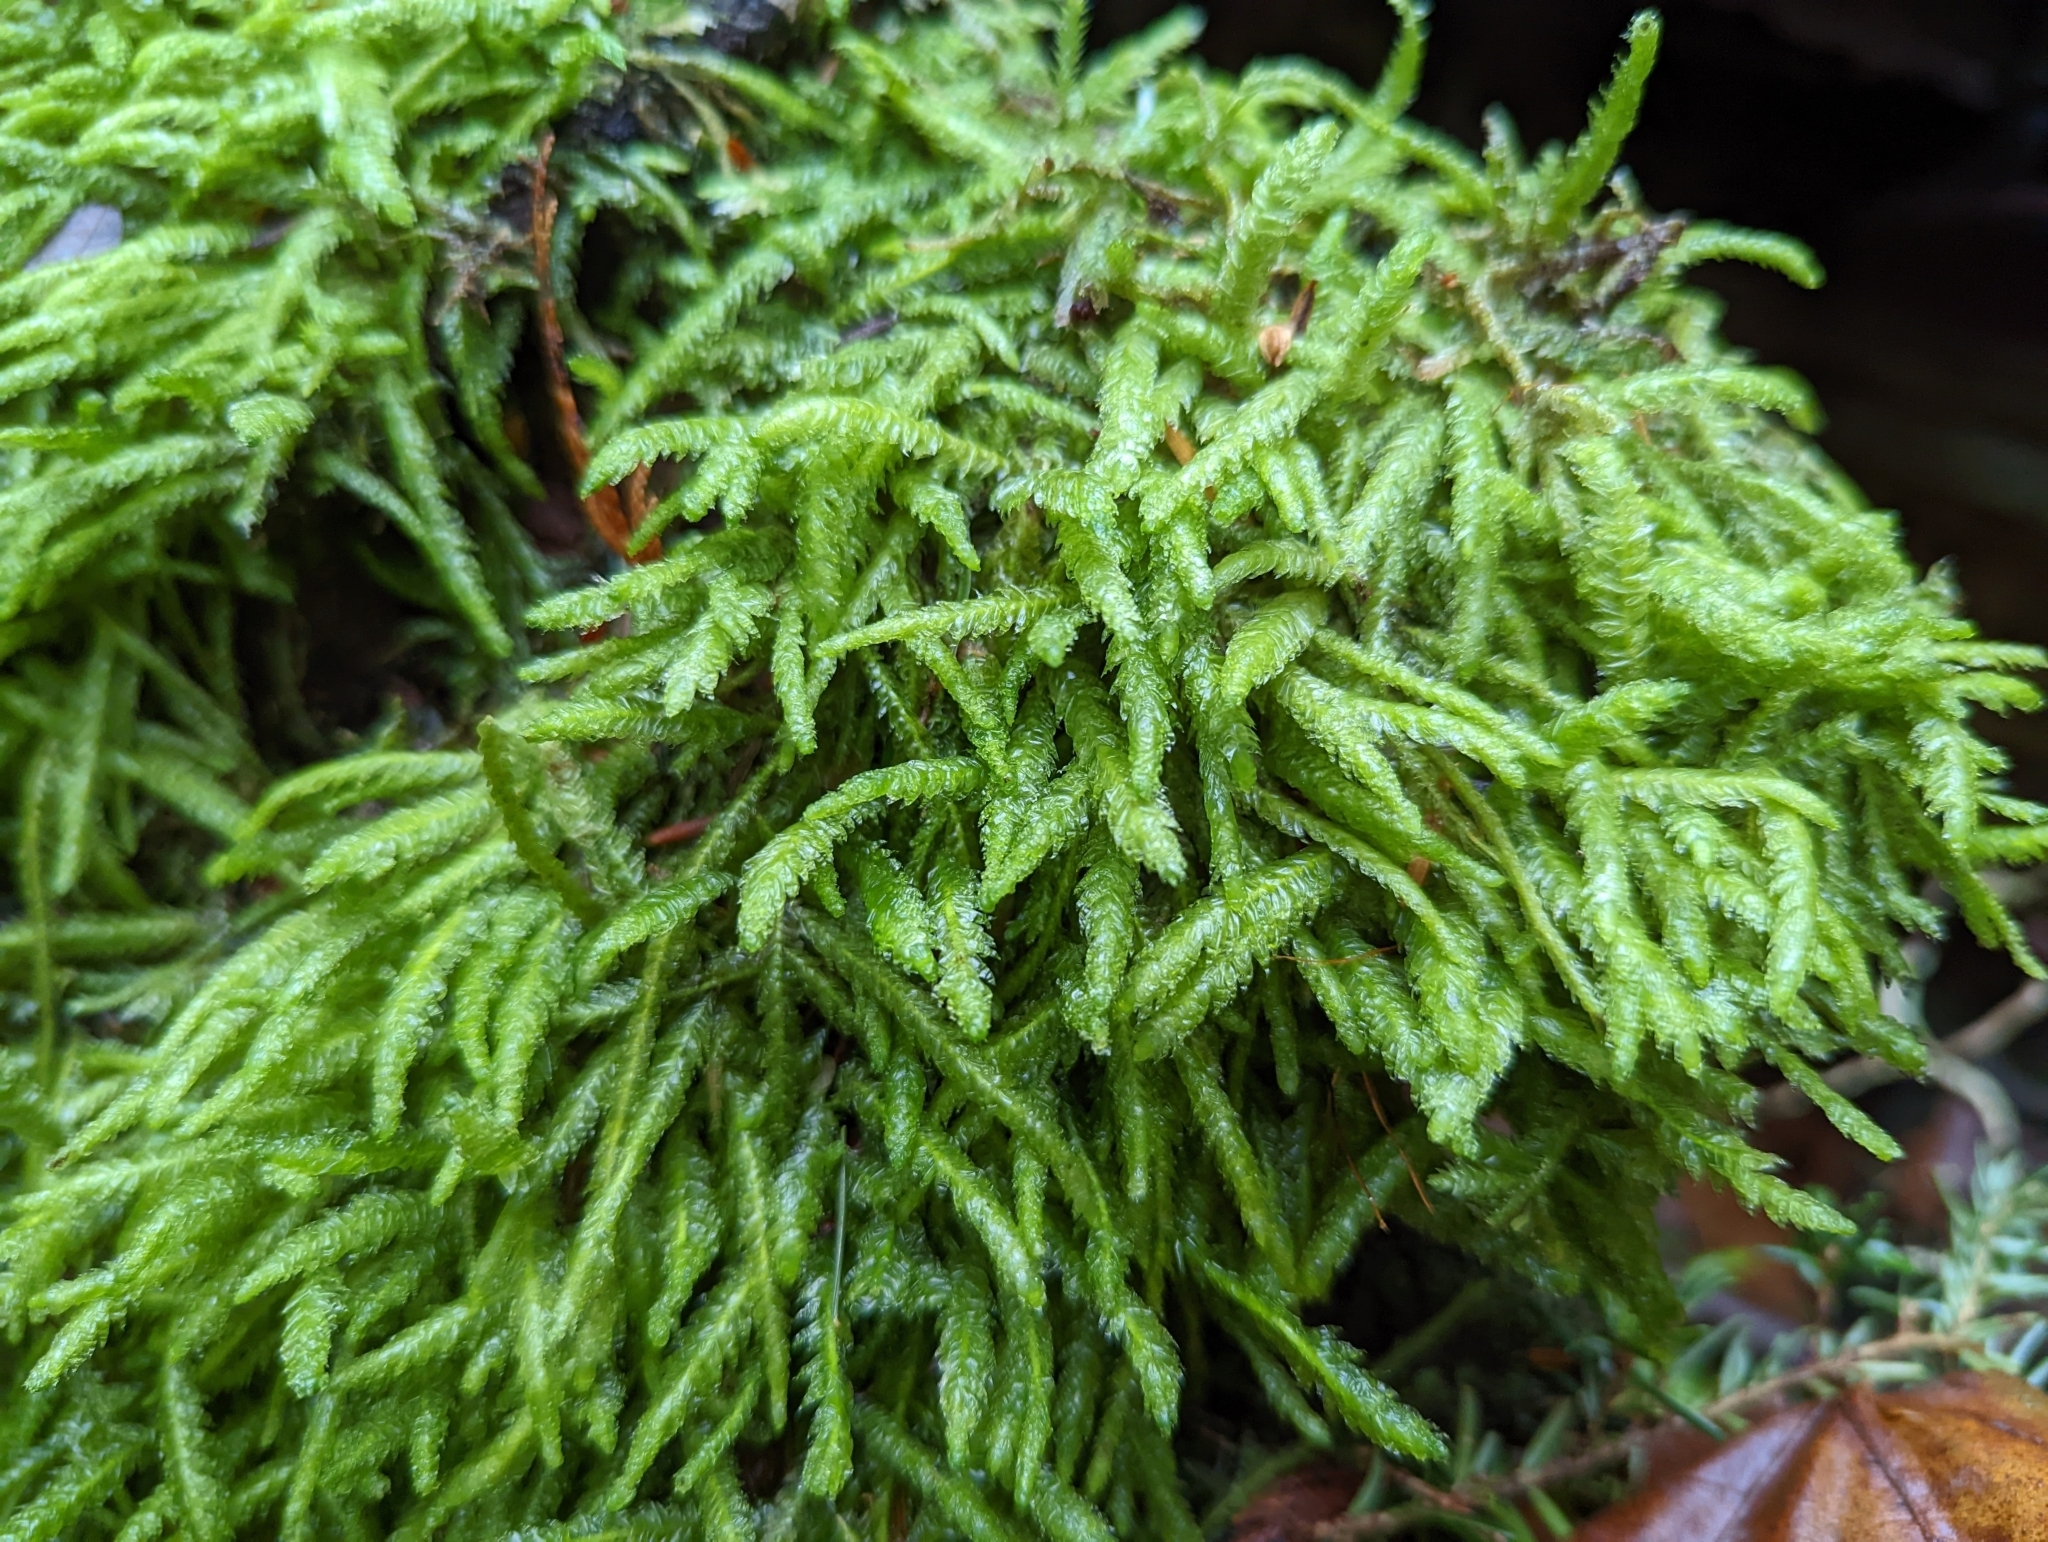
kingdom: Plantae
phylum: Bryophyta
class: Bryopsida
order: Hypnales
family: Plagiotheciaceae
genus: Plagiothecium
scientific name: Plagiothecium undulatum
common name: Waved silk-moss
